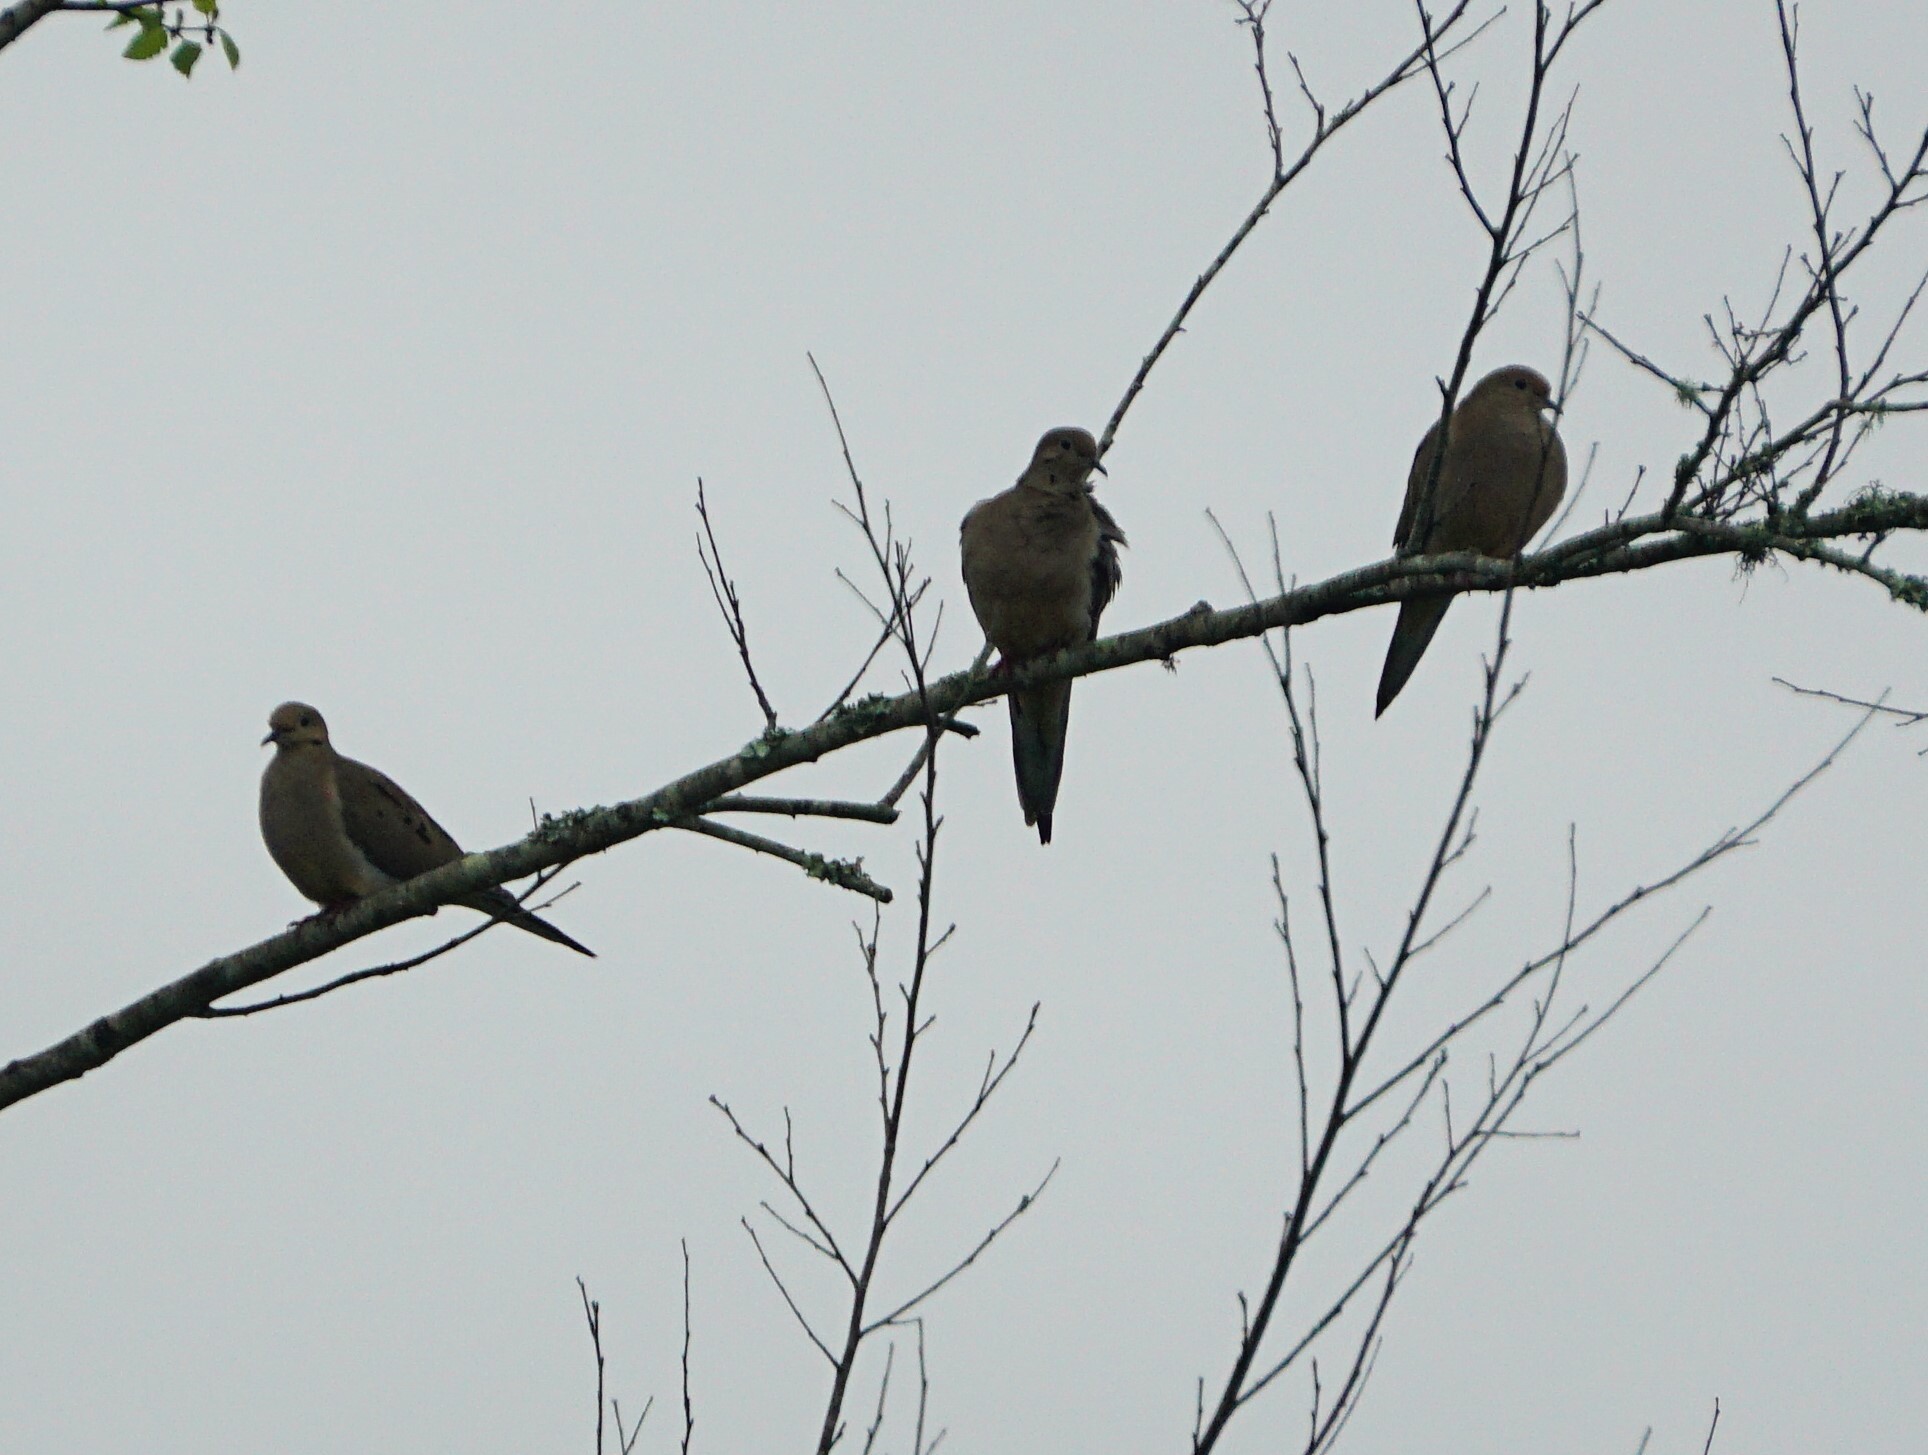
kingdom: Animalia
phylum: Chordata
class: Aves
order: Columbiformes
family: Columbidae
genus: Zenaida
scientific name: Zenaida macroura
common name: Mourning dove
